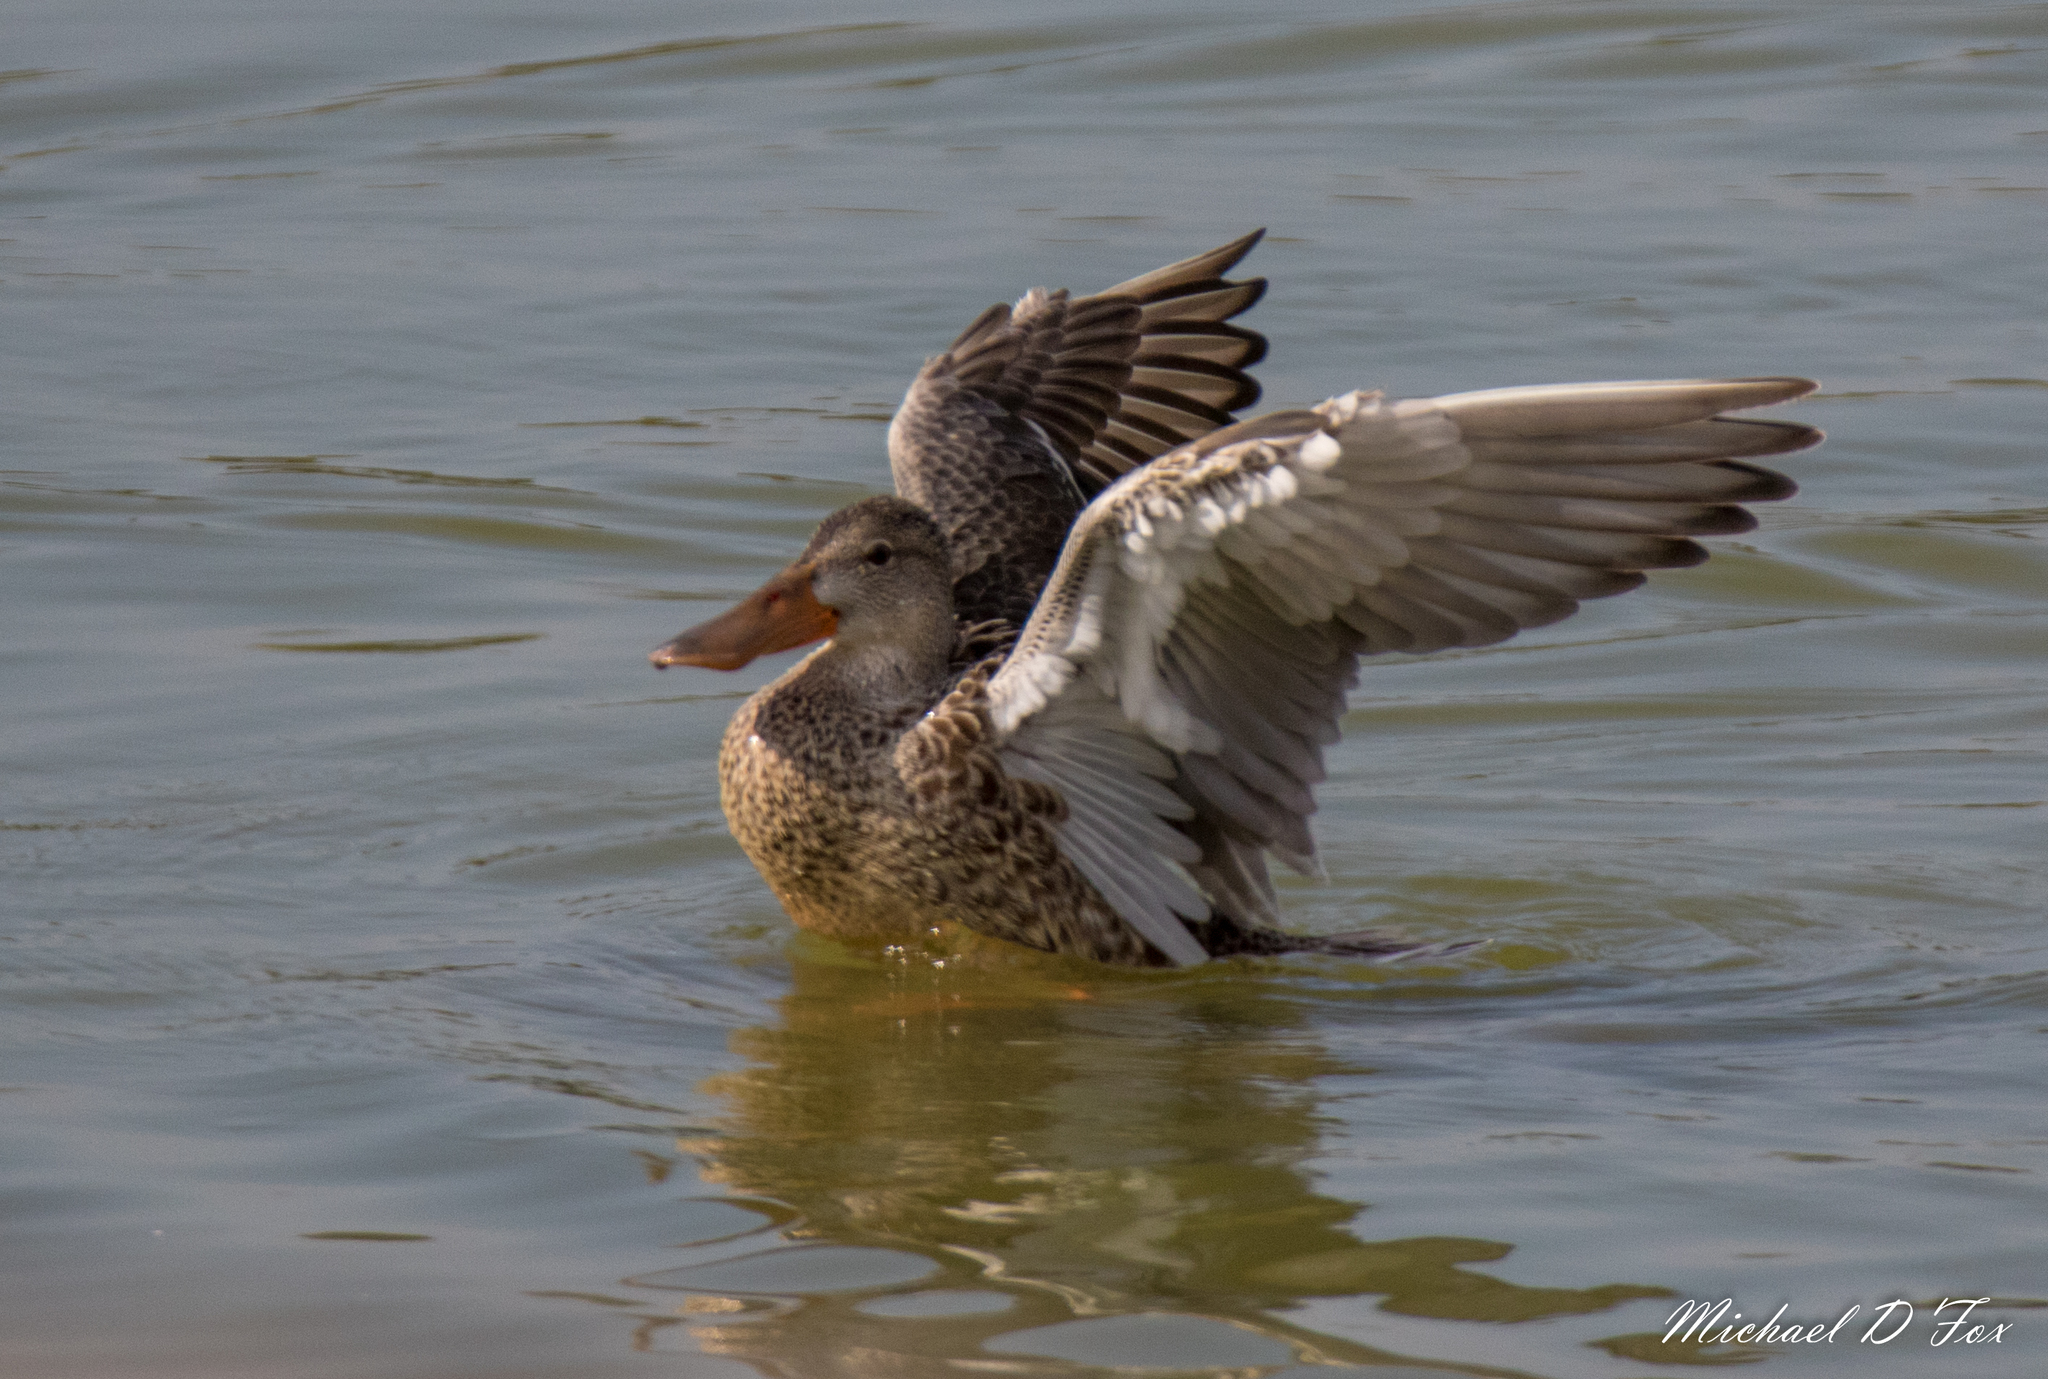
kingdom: Animalia
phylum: Chordata
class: Aves
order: Anseriformes
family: Anatidae
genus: Spatula
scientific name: Spatula clypeata
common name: Northern shoveler
